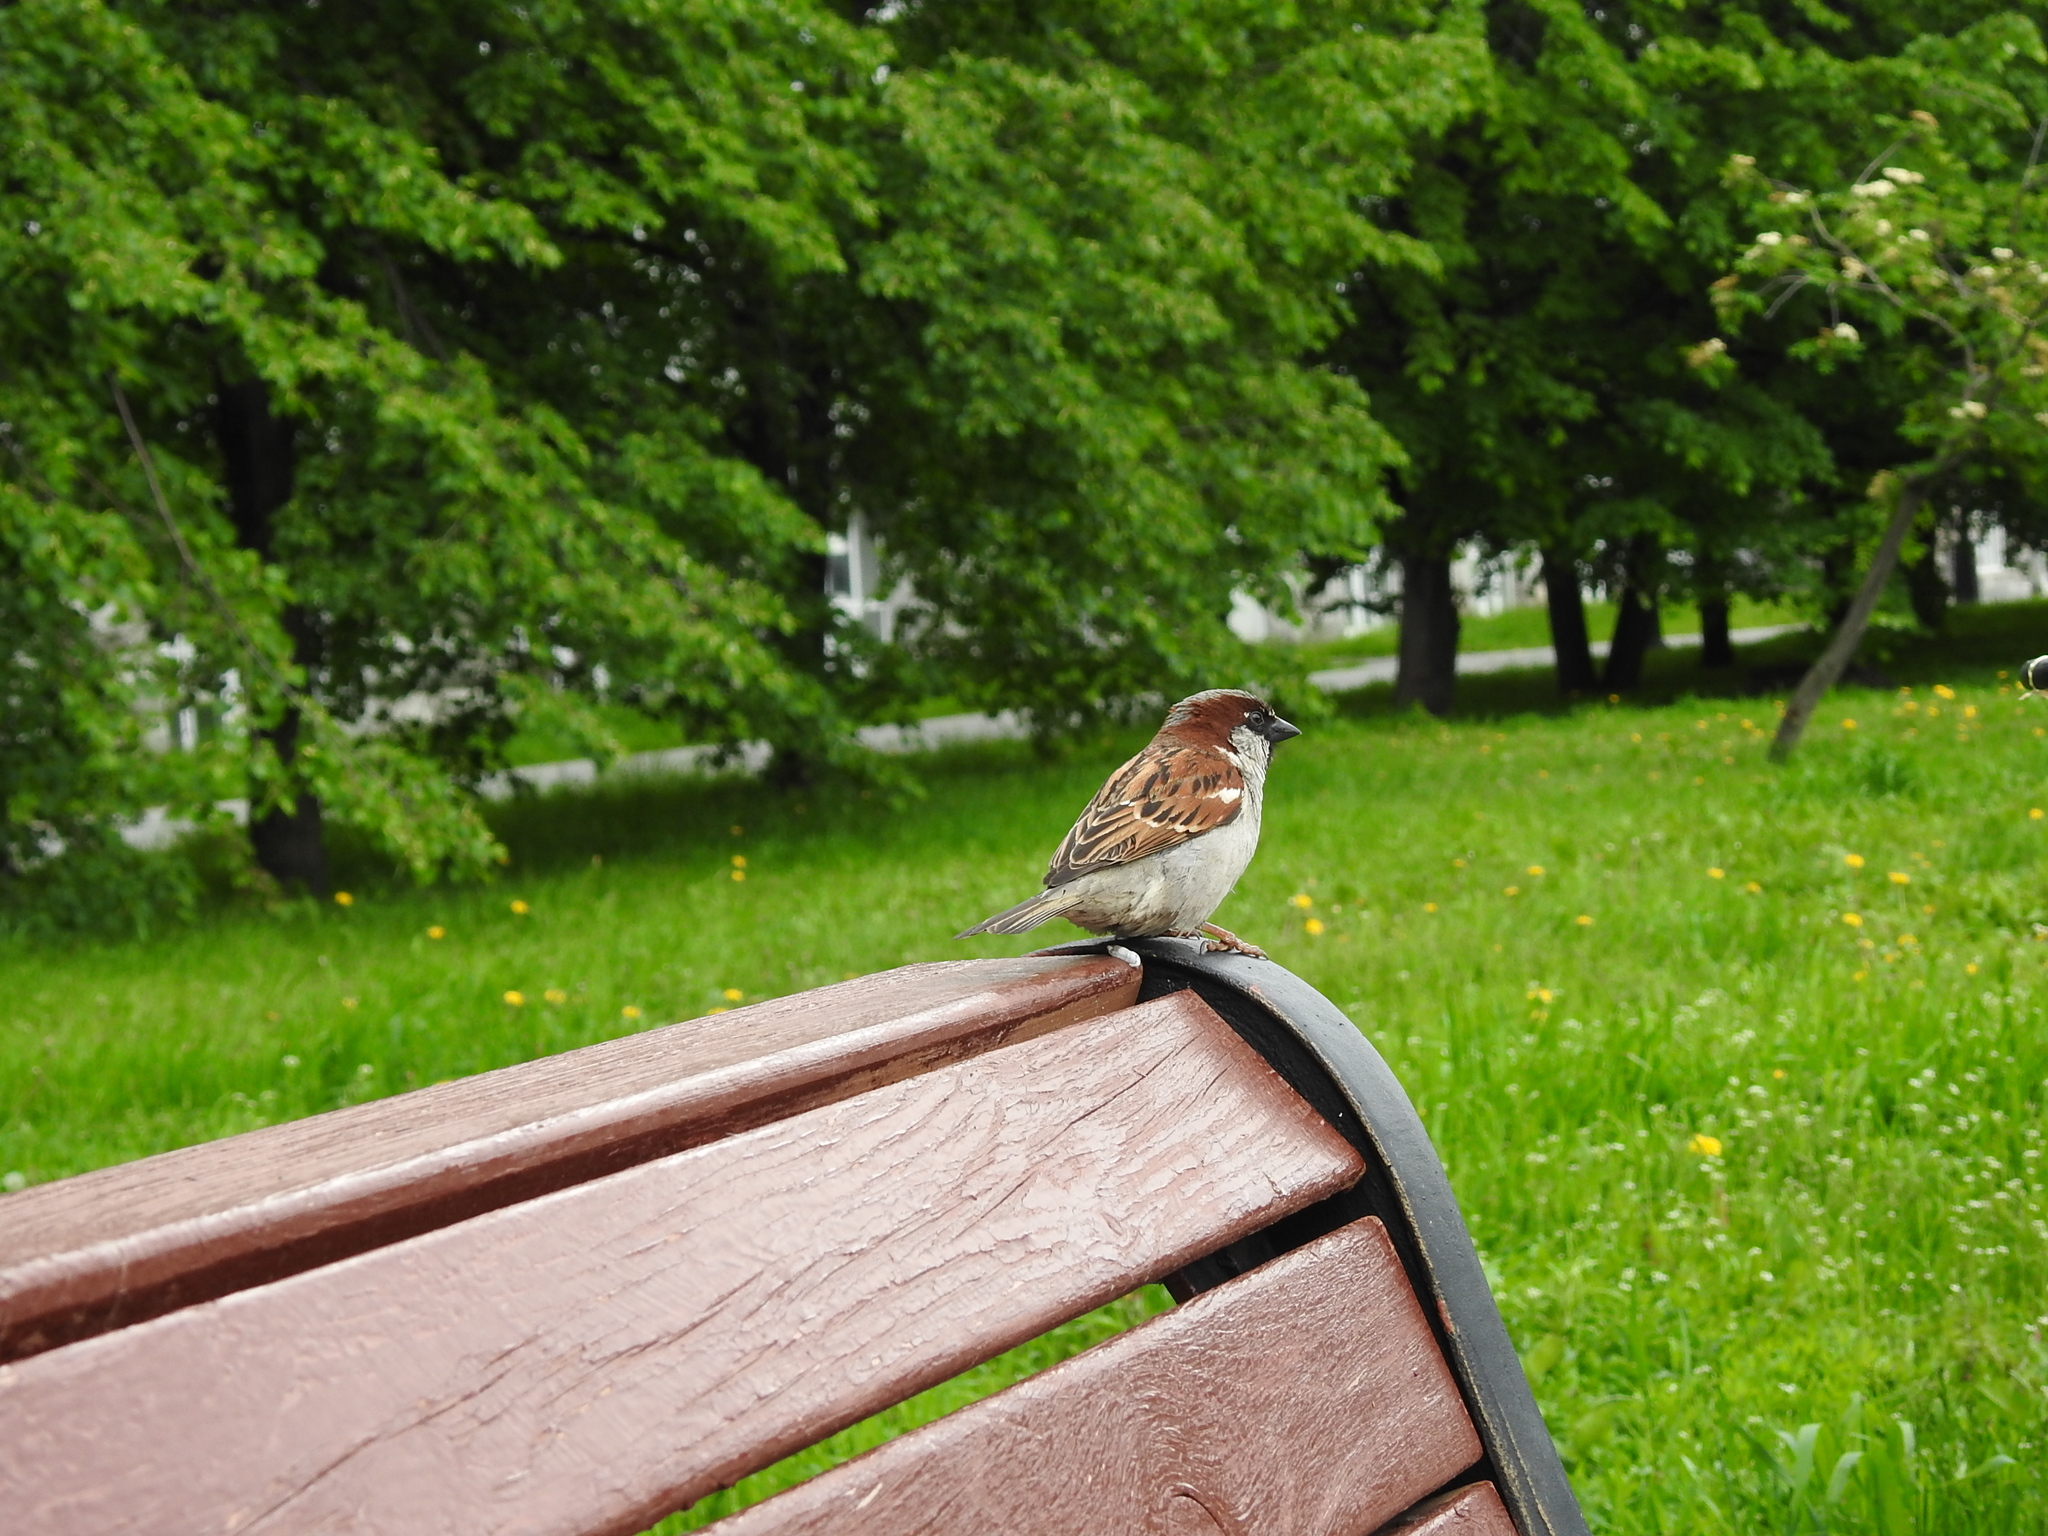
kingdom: Animalia
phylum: Chordata
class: Aves
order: Passeriformes
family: Passeridae
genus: Passer
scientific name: Passer domesticus
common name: House sparrow
